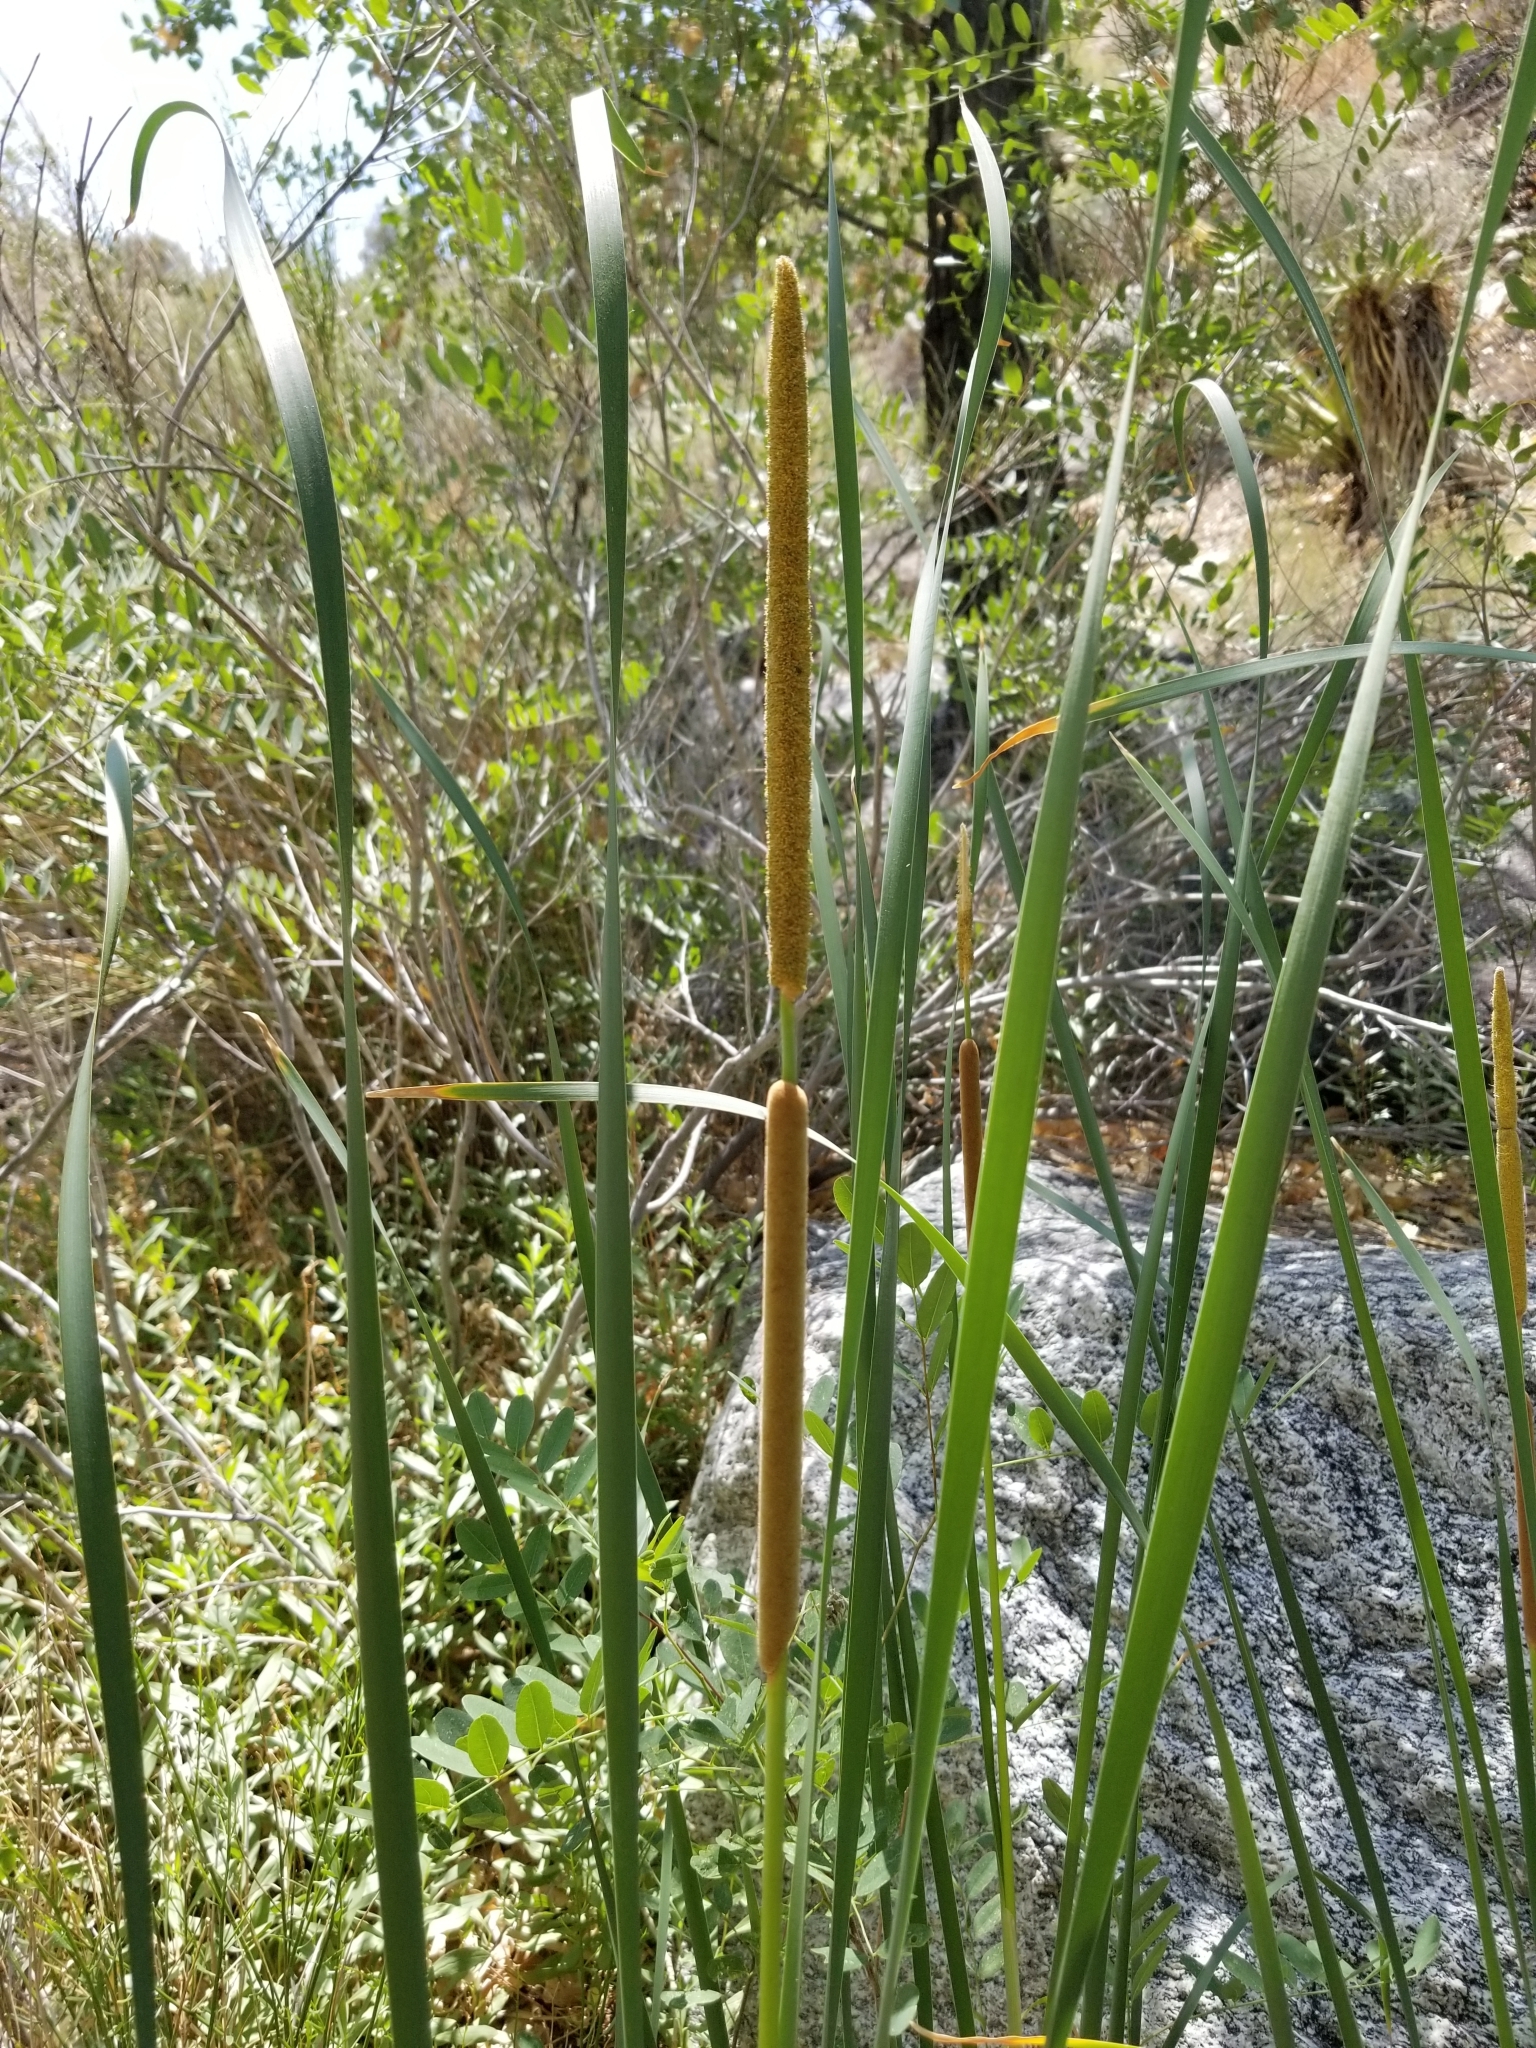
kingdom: Plantae
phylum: Tracheophyta
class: Liliopsida
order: Poales
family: Typhaceae
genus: Typha
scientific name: Typha domingensis
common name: Southern cattail
